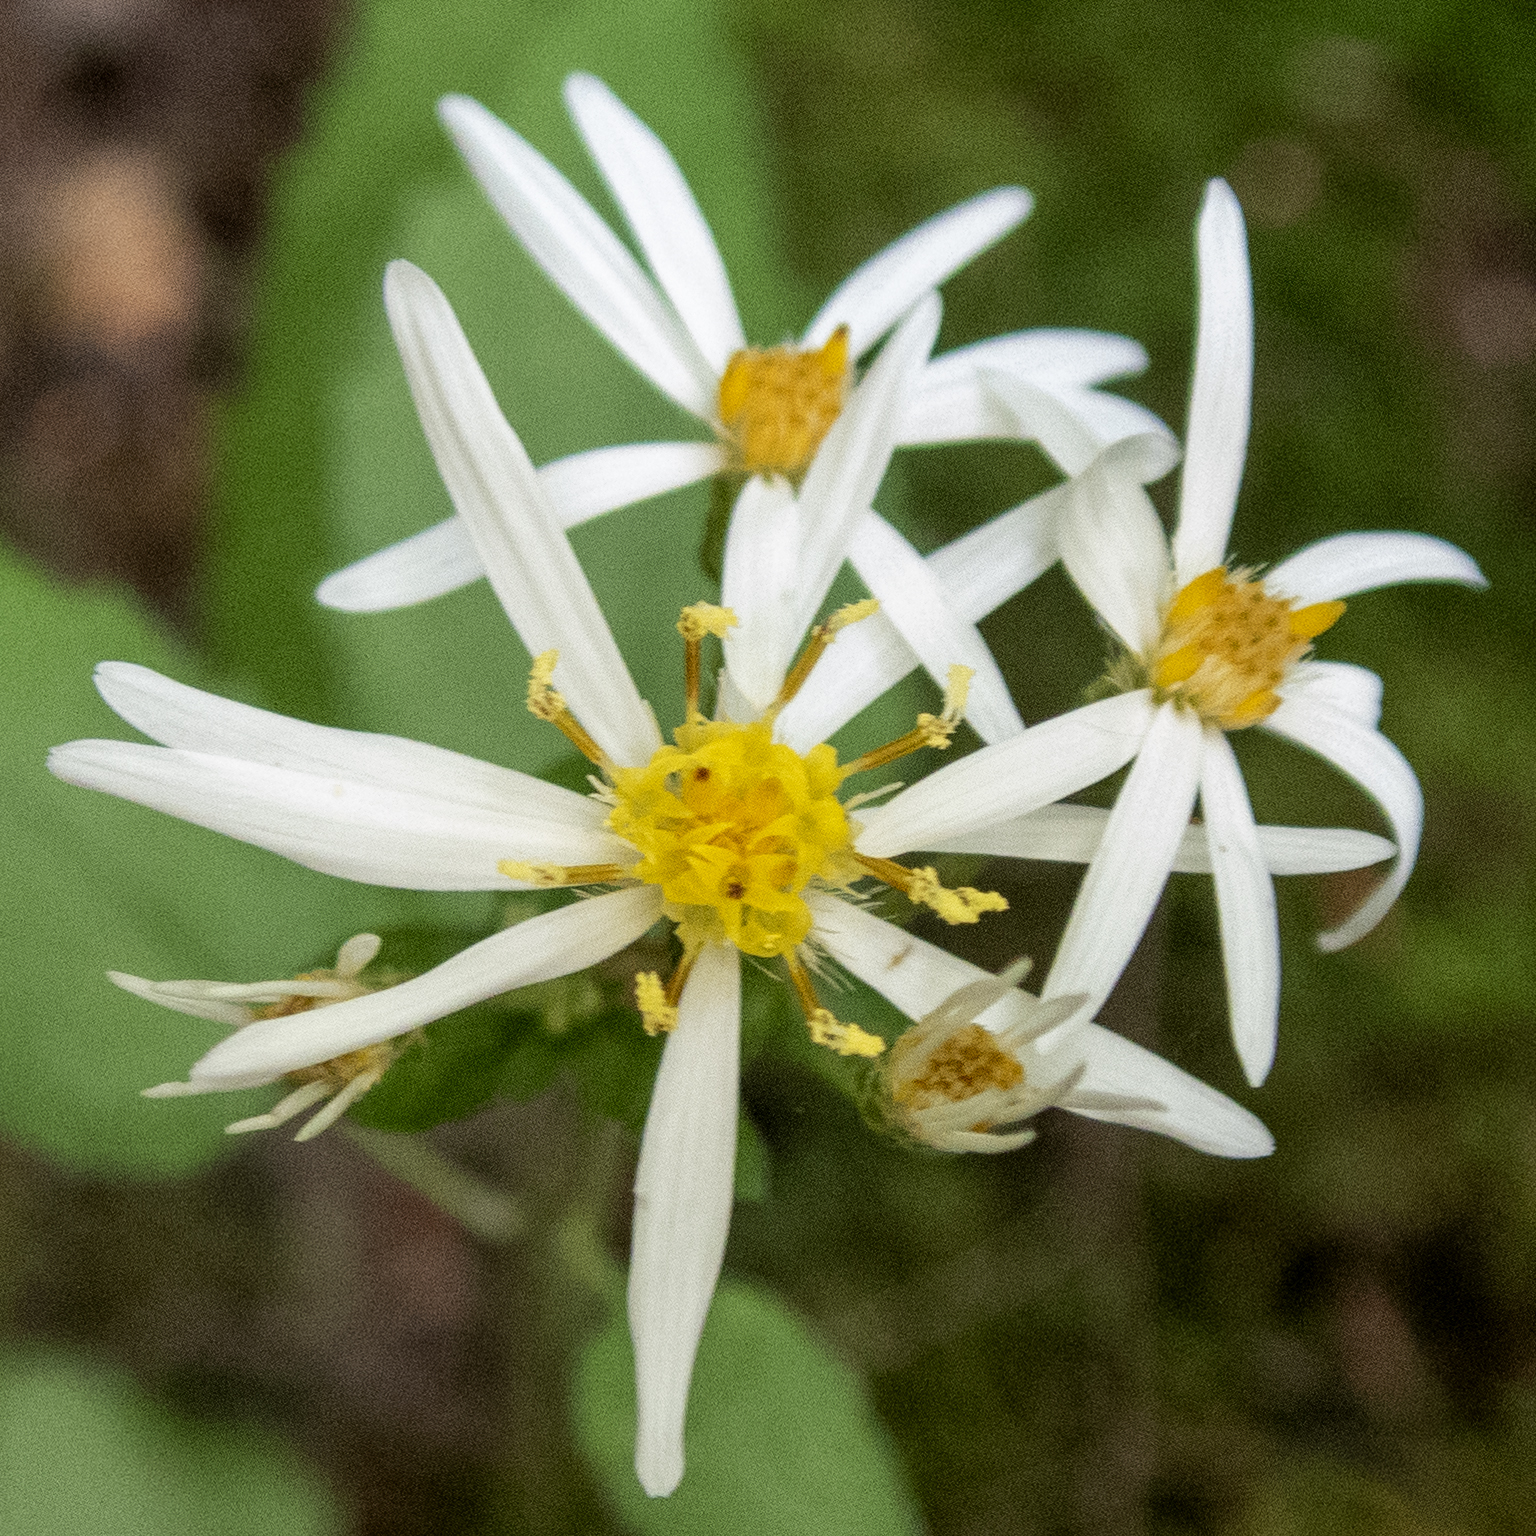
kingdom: Plantae
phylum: Tracheophyta
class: Magnoliopsida
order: Asterales
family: Asteraceae
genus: Eurybia
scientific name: Eurybia divaricata
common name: White wood aster
